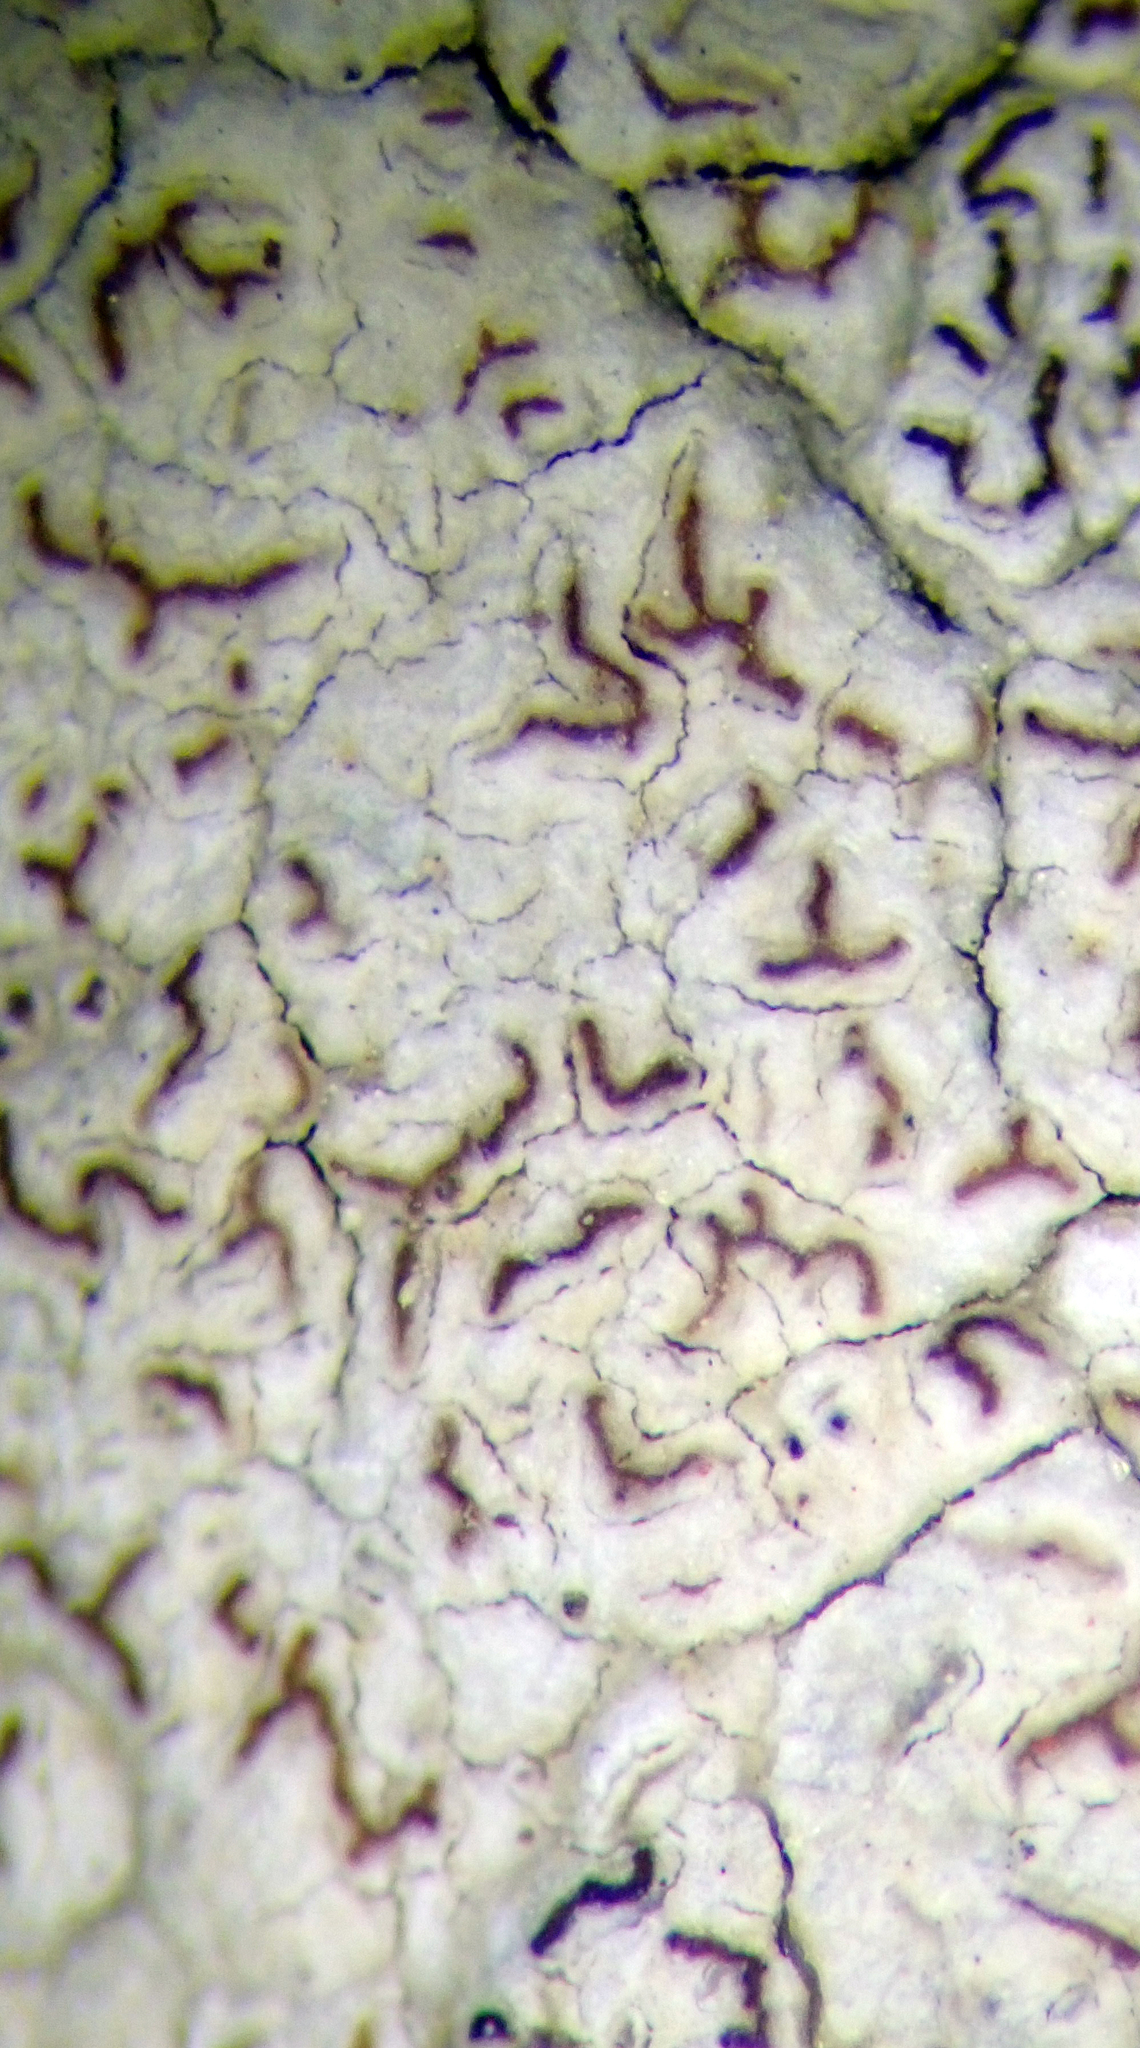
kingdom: Fungi
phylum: Ascomycota
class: Arthoniomycetes
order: Arthoniales
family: Roccellaceae
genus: Enterographa
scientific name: Enterographa pallidella
